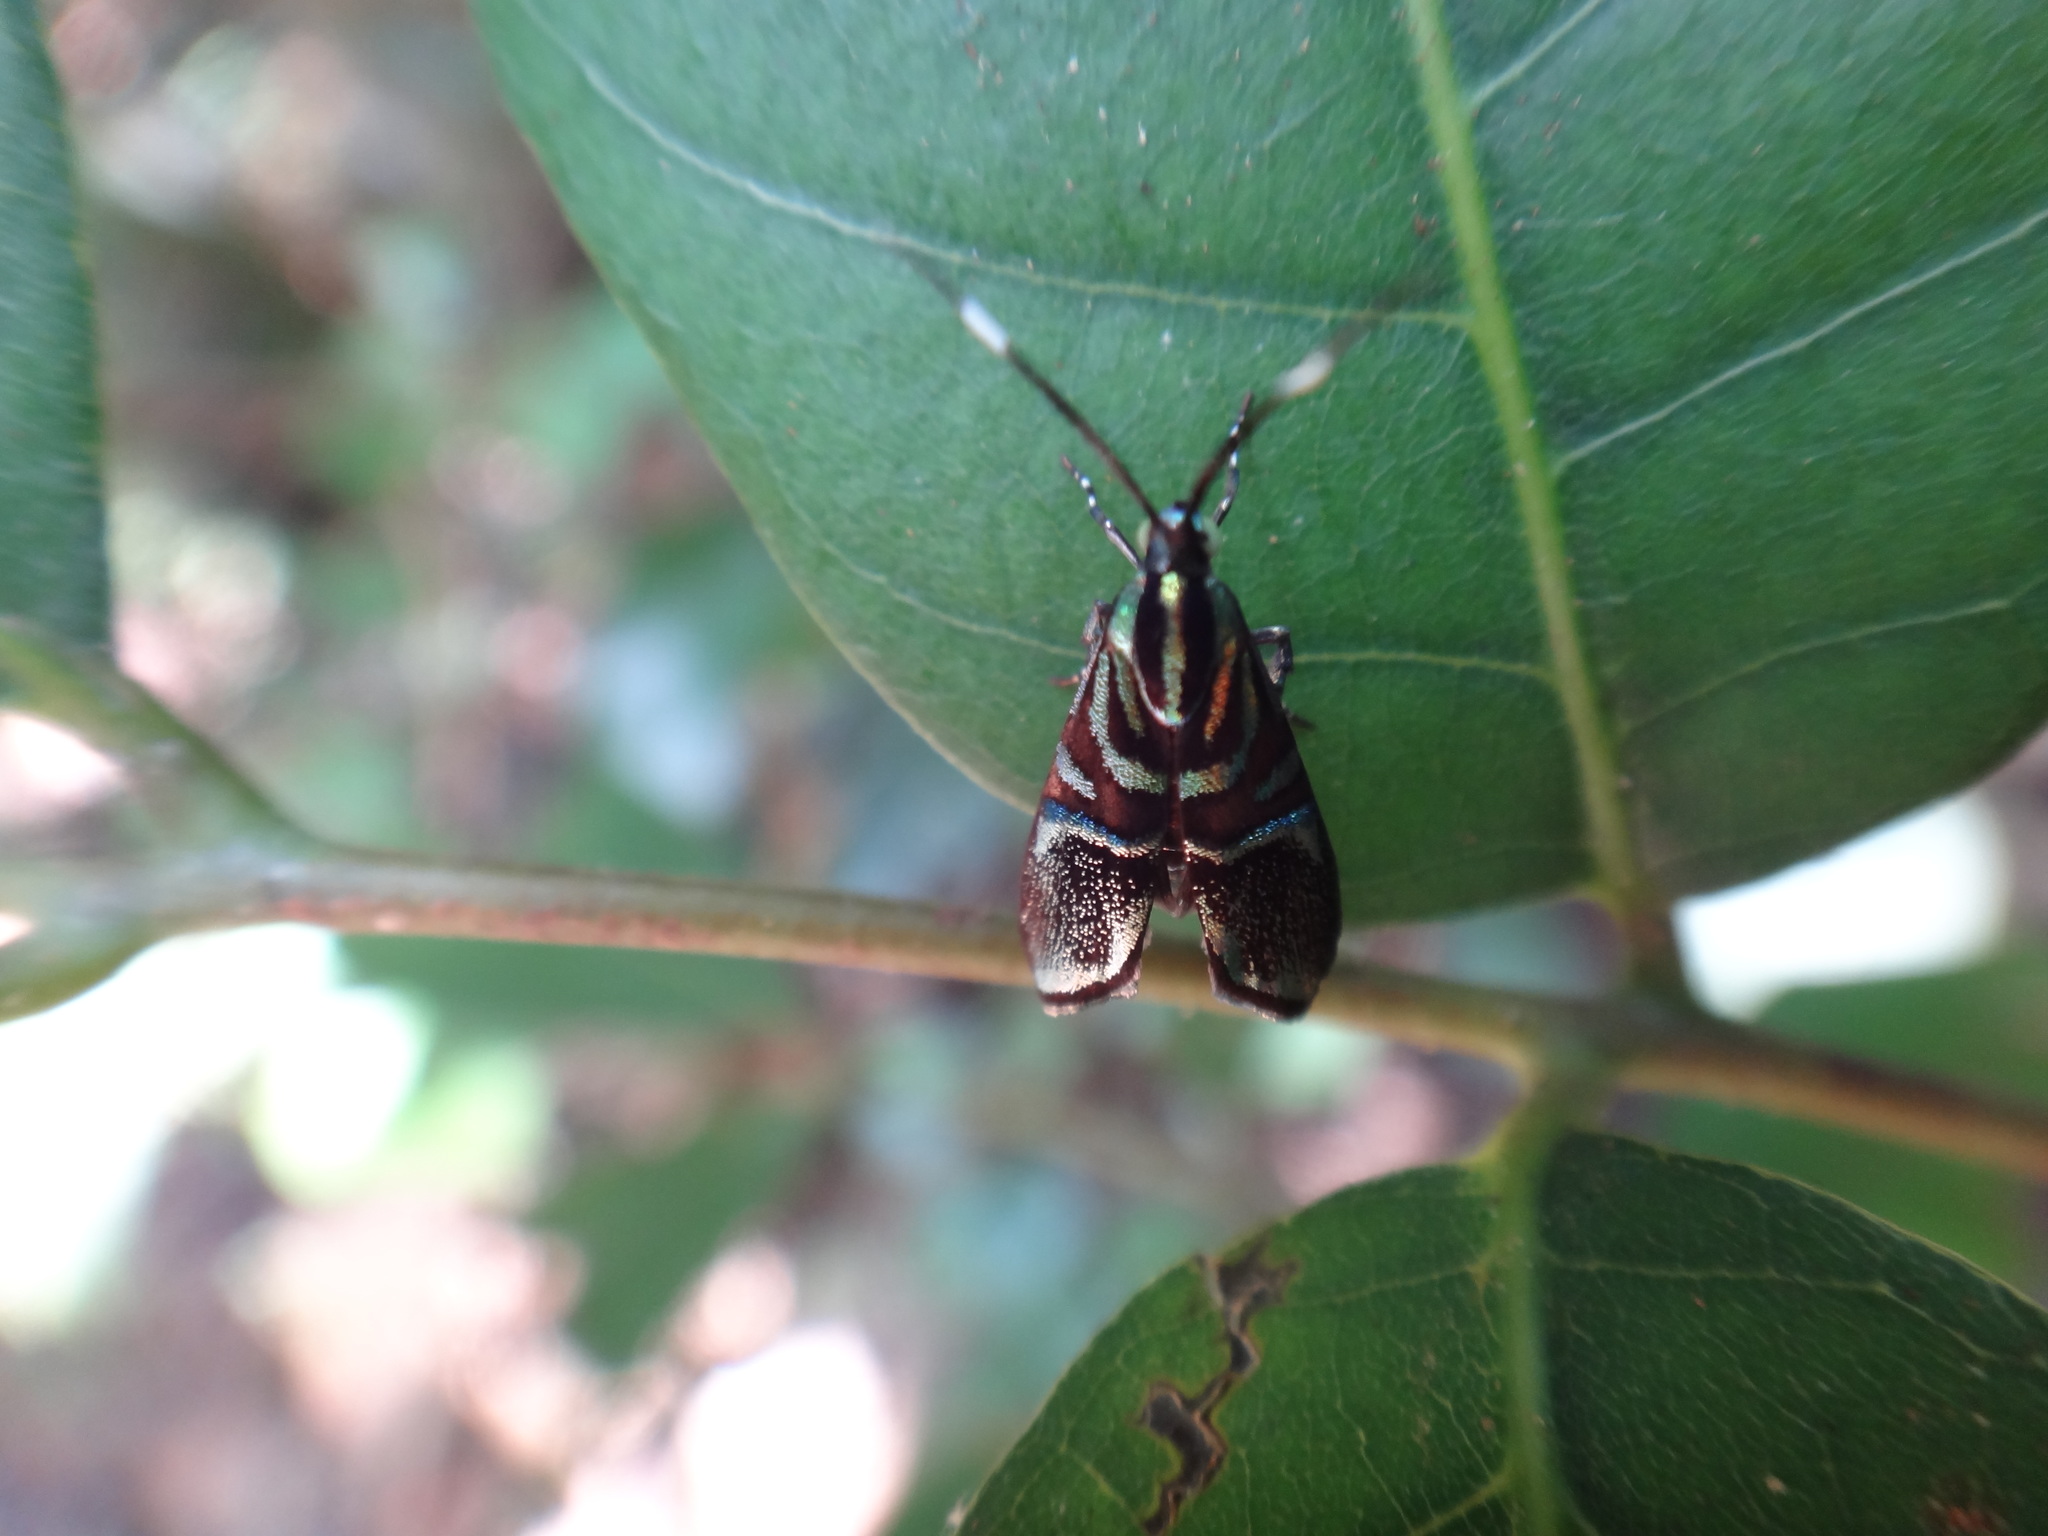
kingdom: Animalia
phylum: Arthropoda
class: Insecta
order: Lepidoptera
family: Choreutidae
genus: Saptha
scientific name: Saptha divitiosa
